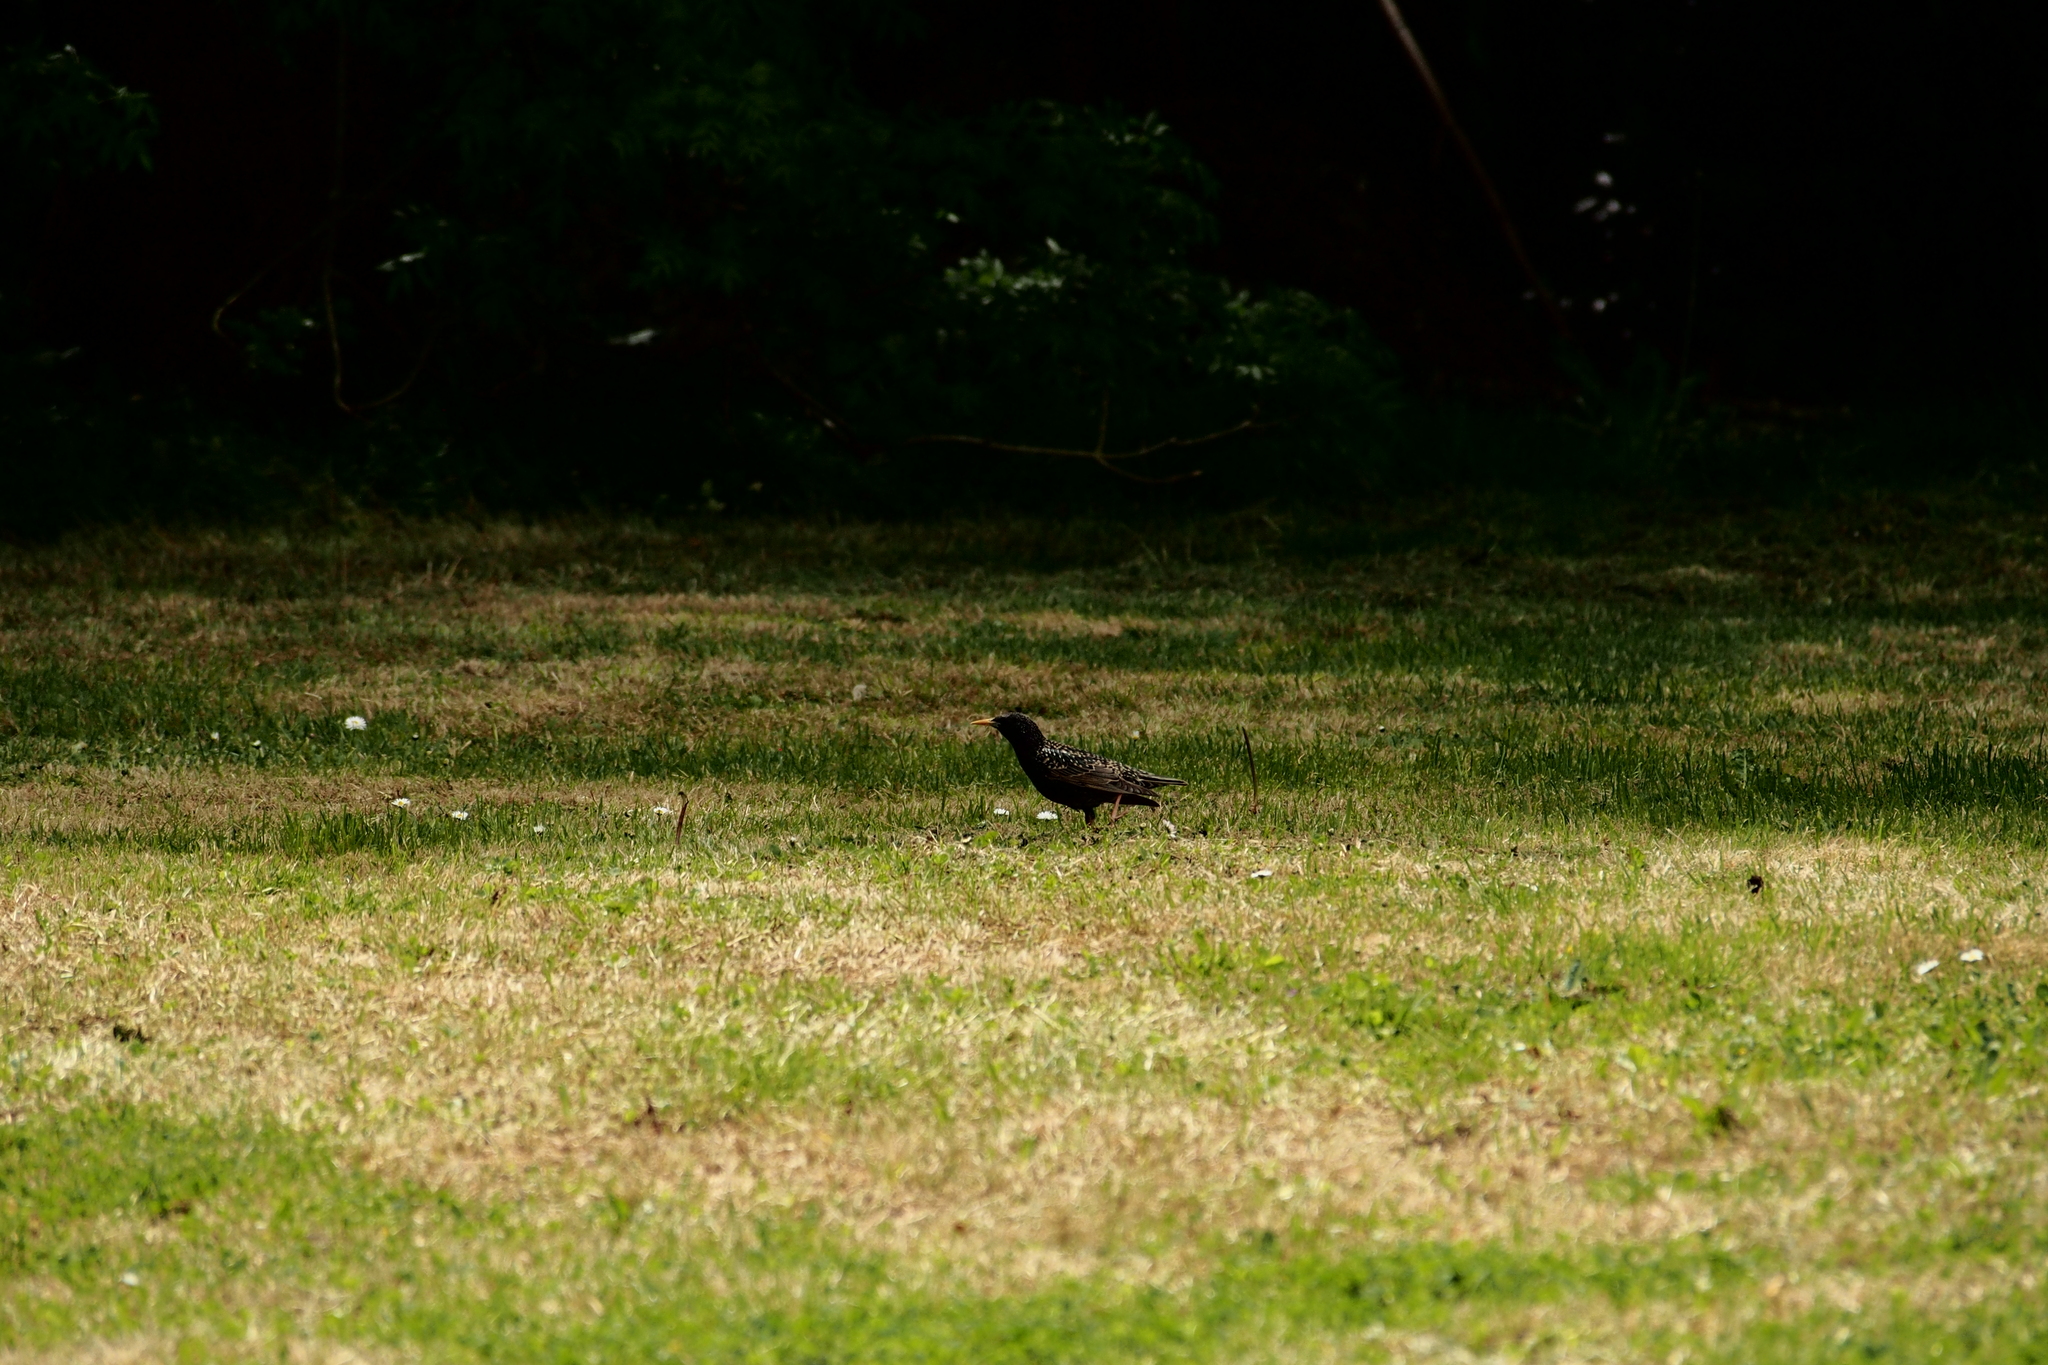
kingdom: Animalia
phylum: Chordata
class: Aves
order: Passeriformes
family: Sturnidae
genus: Sturnus
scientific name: Sturnus vulgaris
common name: Common starling
